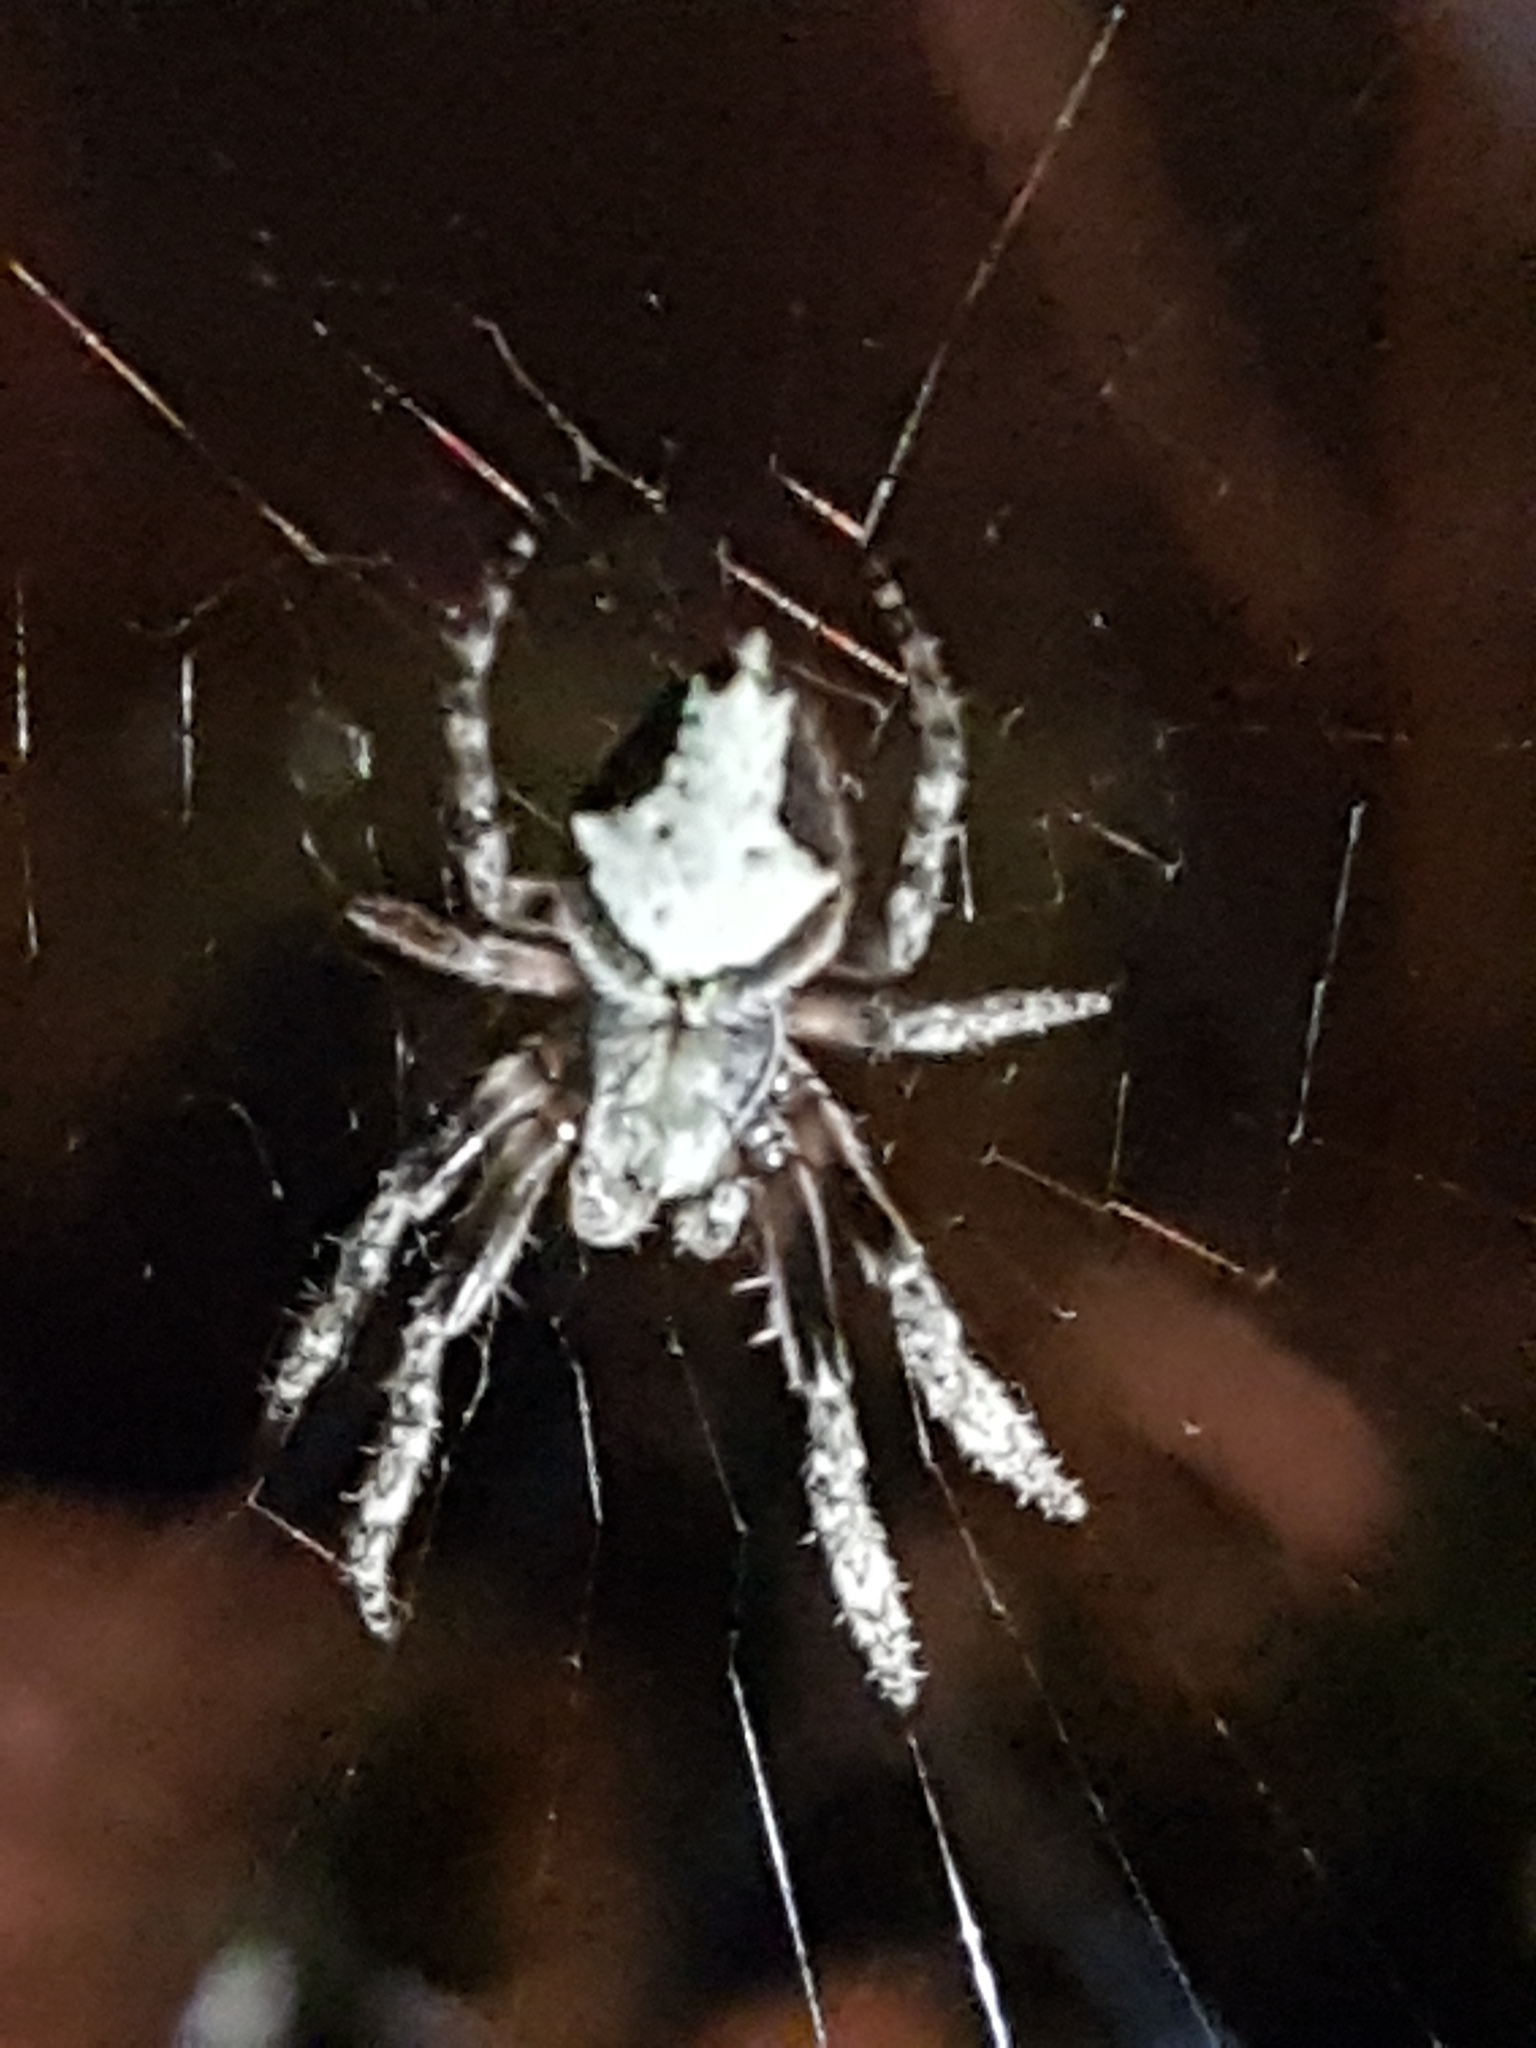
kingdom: Animalia
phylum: Arthropoda
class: Arachnida
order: Araneae
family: Araneidae
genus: Eriophora
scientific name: Eriophora pustulosa
